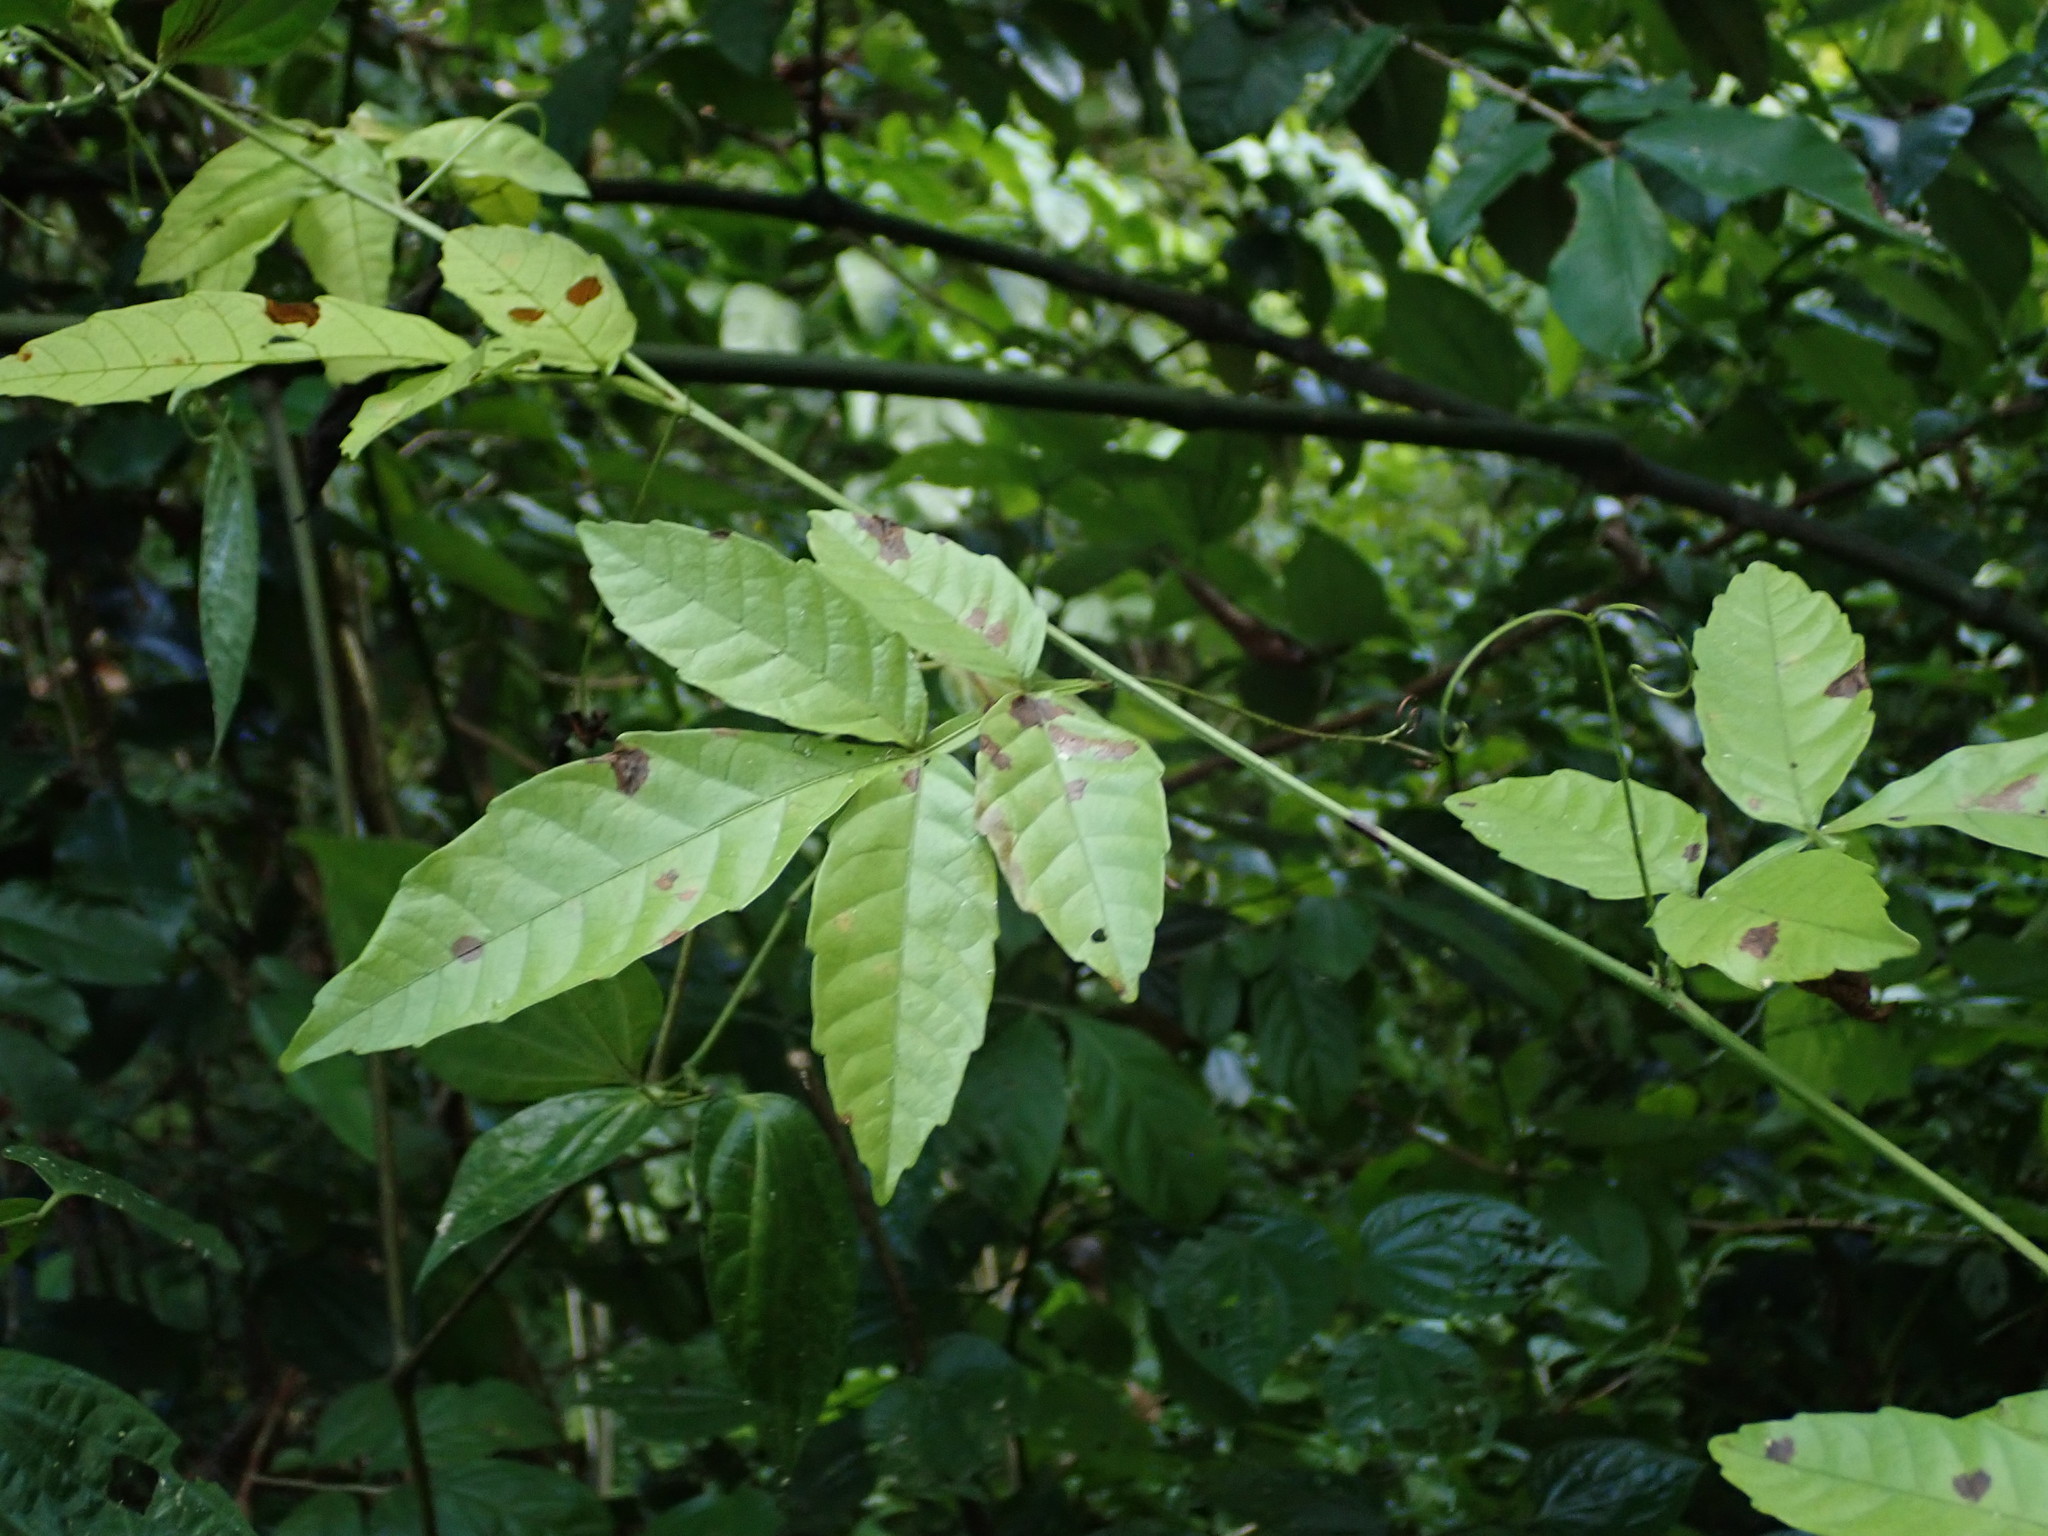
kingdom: Plantae
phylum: Tracheophyta
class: Magnoliopsida
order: Sapindales
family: Sapindaceae
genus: Paullinia
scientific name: Paullinia pinnata
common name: Barbasco
